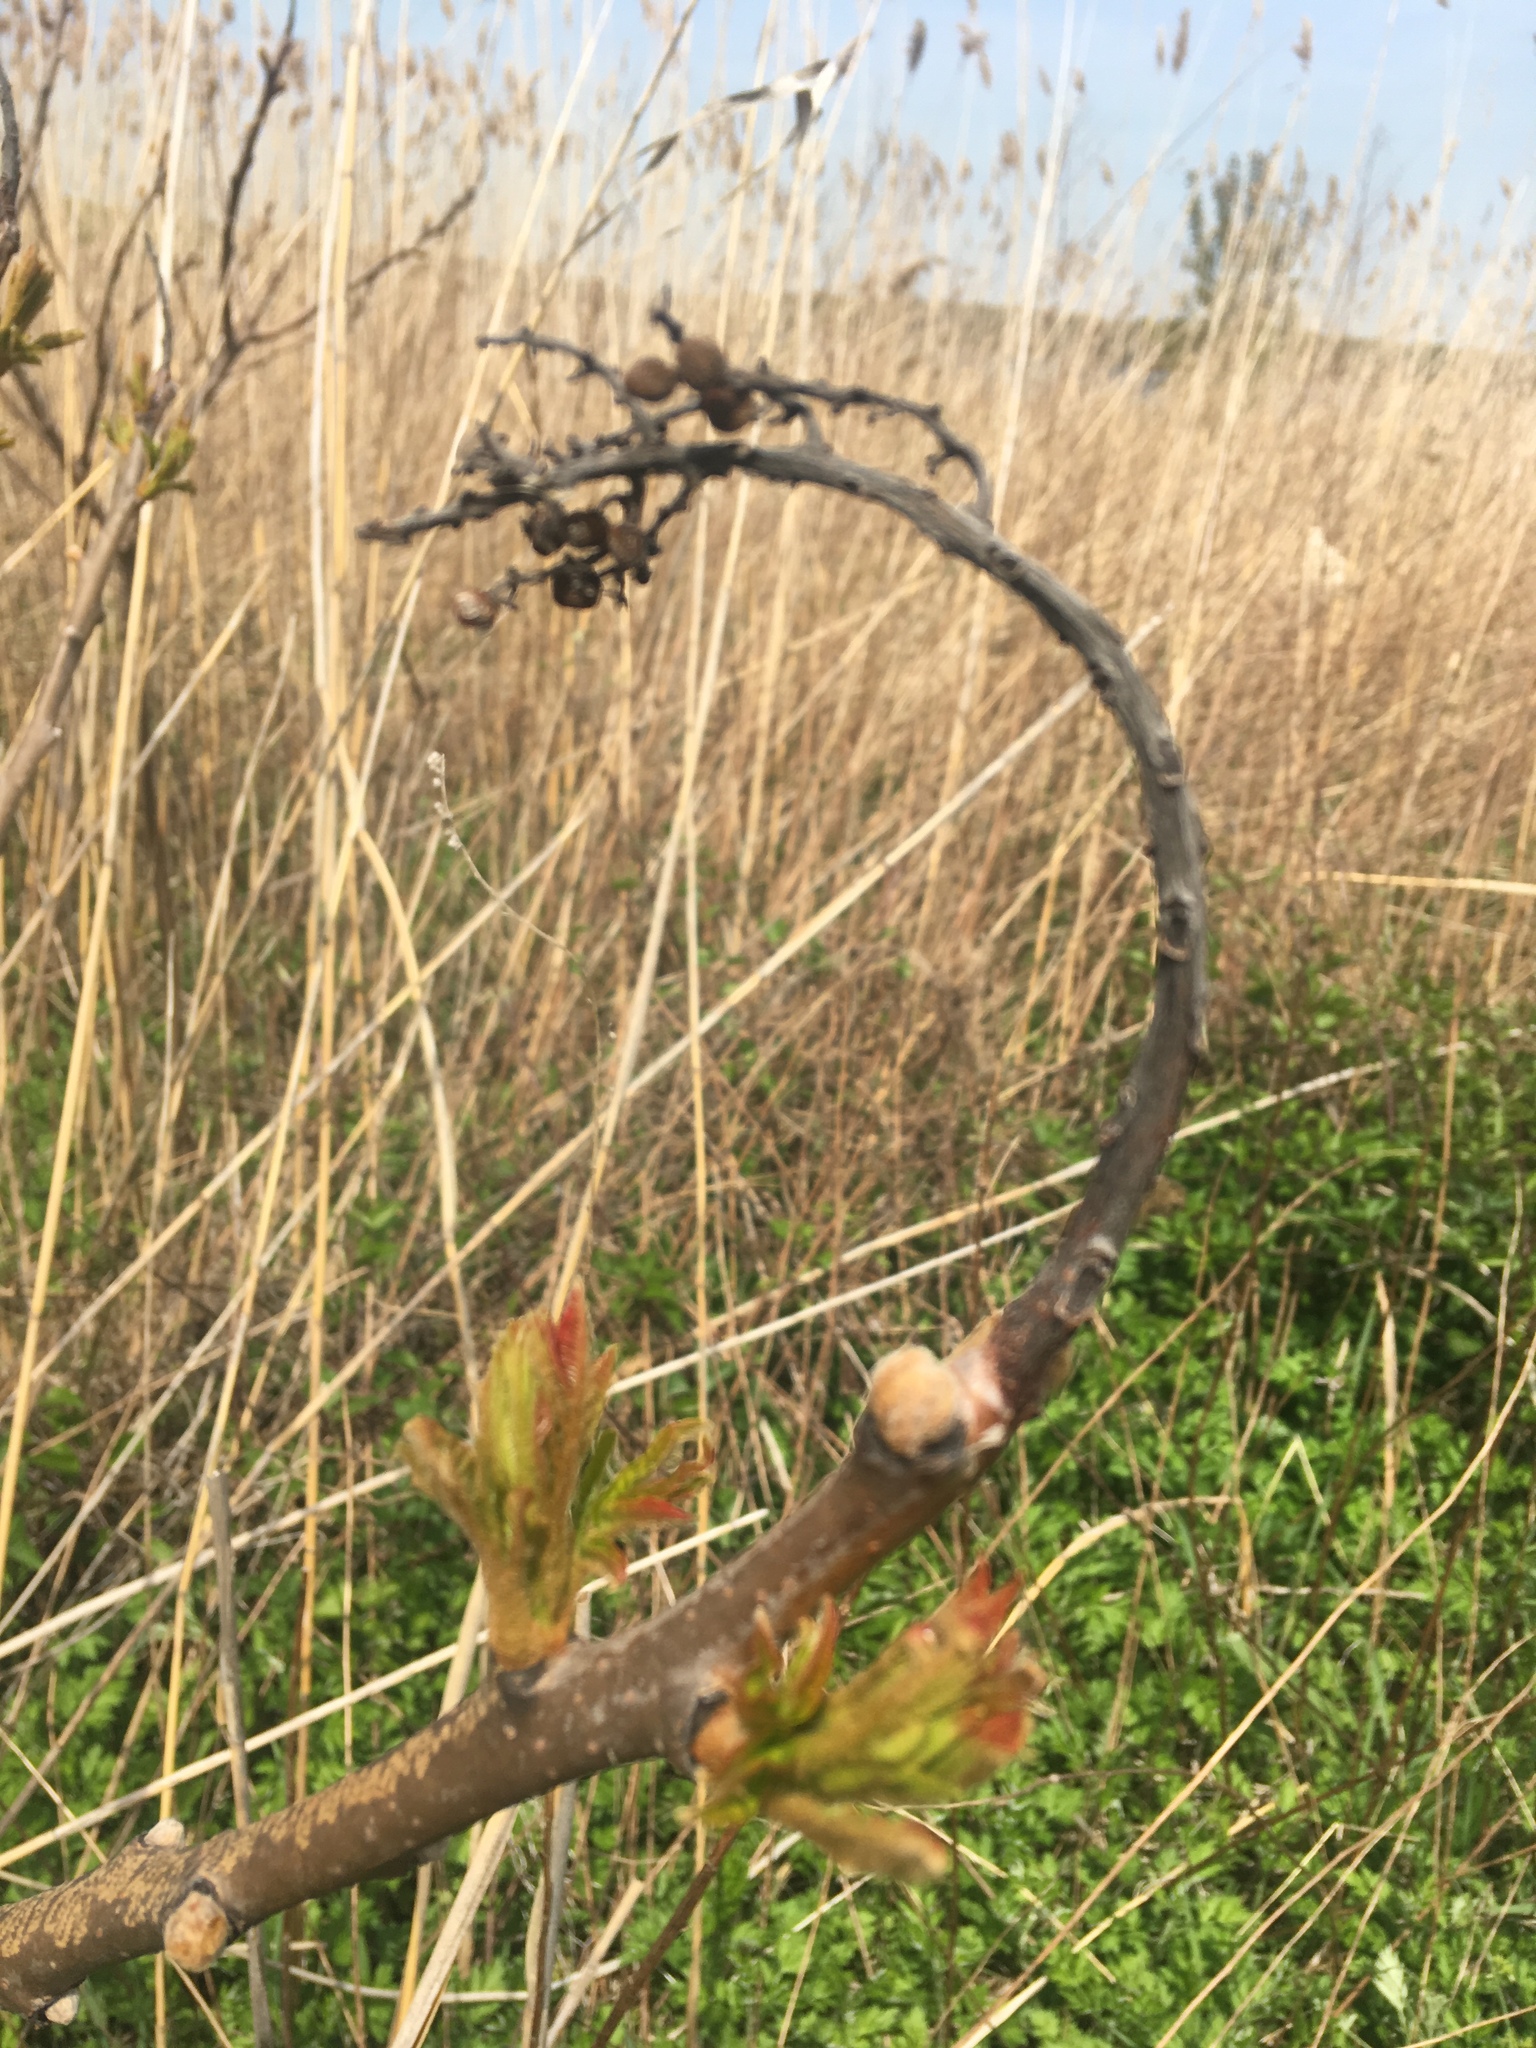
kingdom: Plantae
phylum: Tracheophyta
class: Magnoliopsida
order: Sapindales
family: Anacardiaceae
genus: Rhus
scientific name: Rhus copallina
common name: Shining sumac
